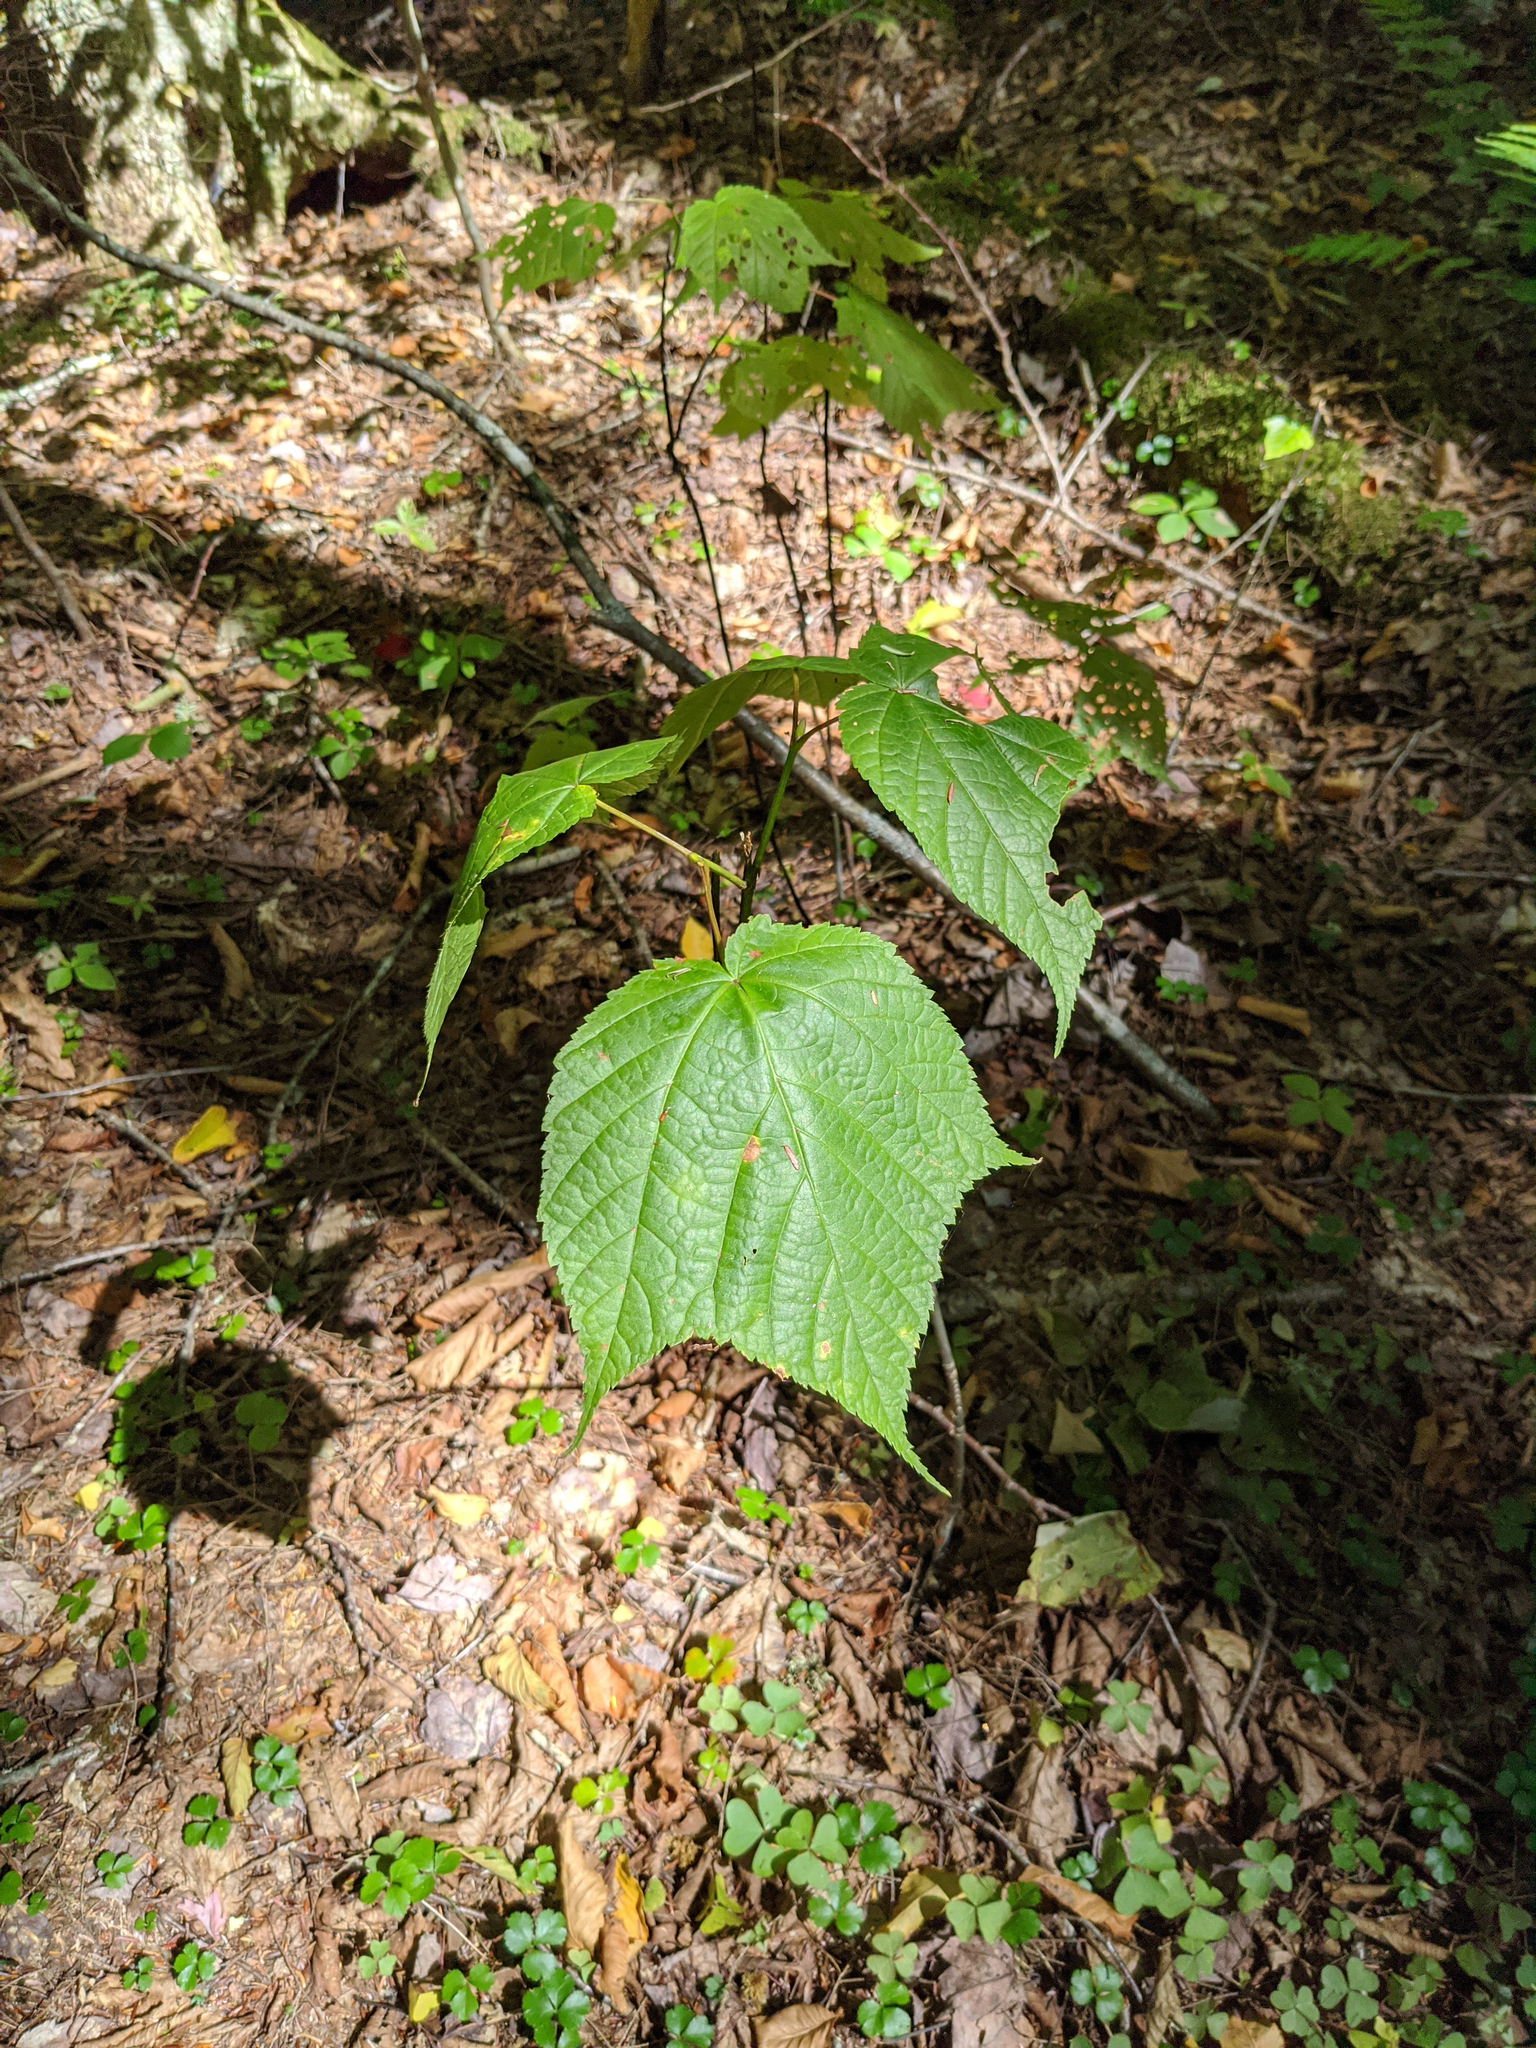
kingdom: Plantae
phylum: Tracheophyta
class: Magnoliopsida
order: Sapindales
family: Sapindaceae
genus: Acer
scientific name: Acer pensylvanicum
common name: Moosewood
